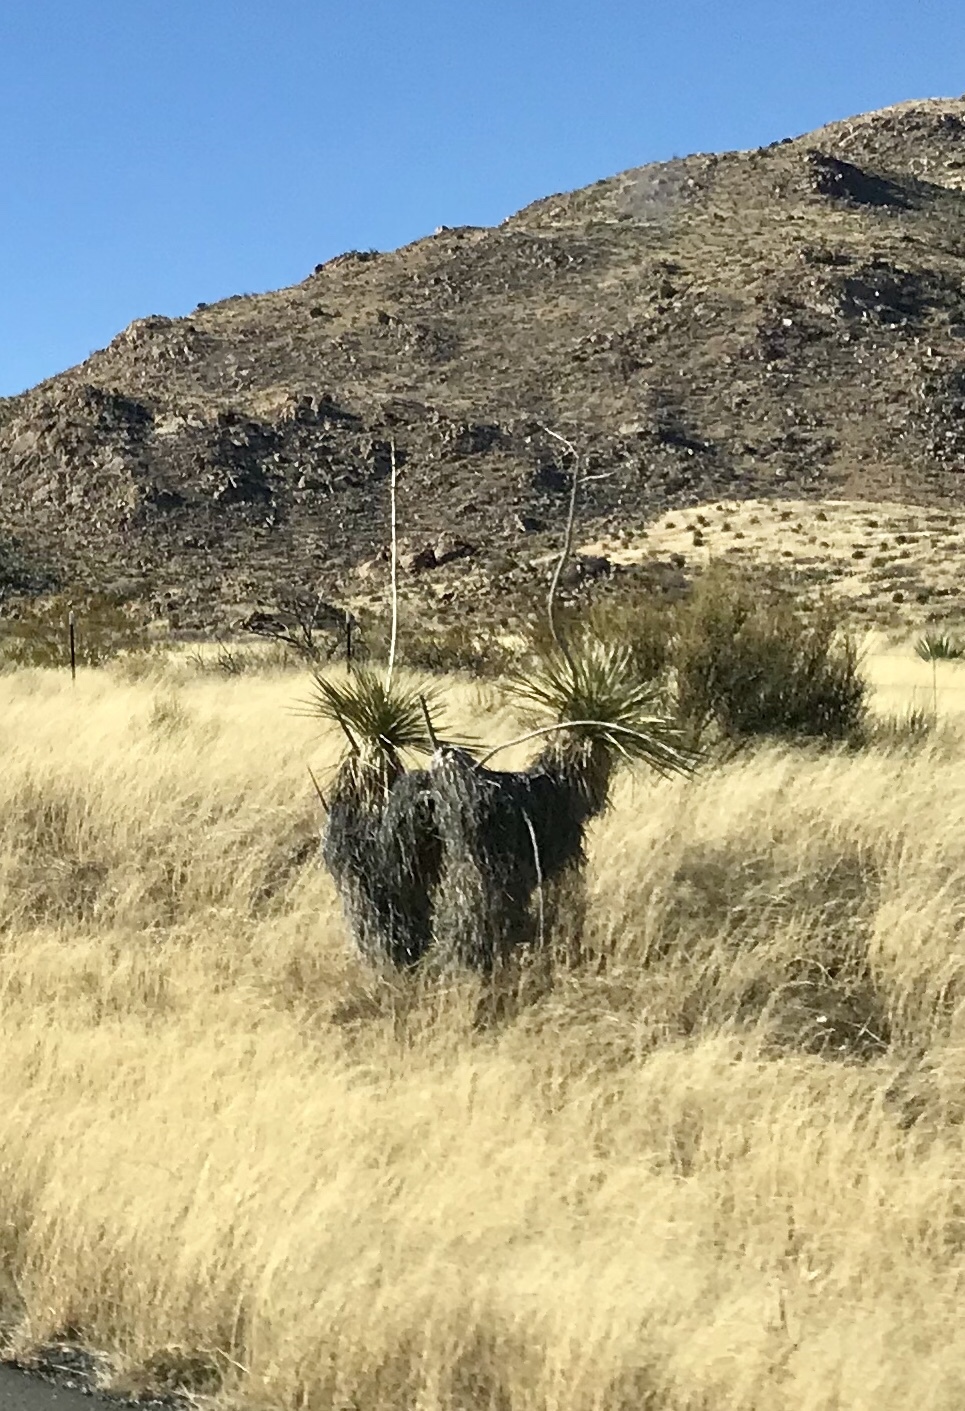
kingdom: Plantae
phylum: Tracheophyta
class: Liliopsida
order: Asparagales
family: Asparagaceae
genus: Yucca
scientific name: Yucca elata
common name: Palmella
